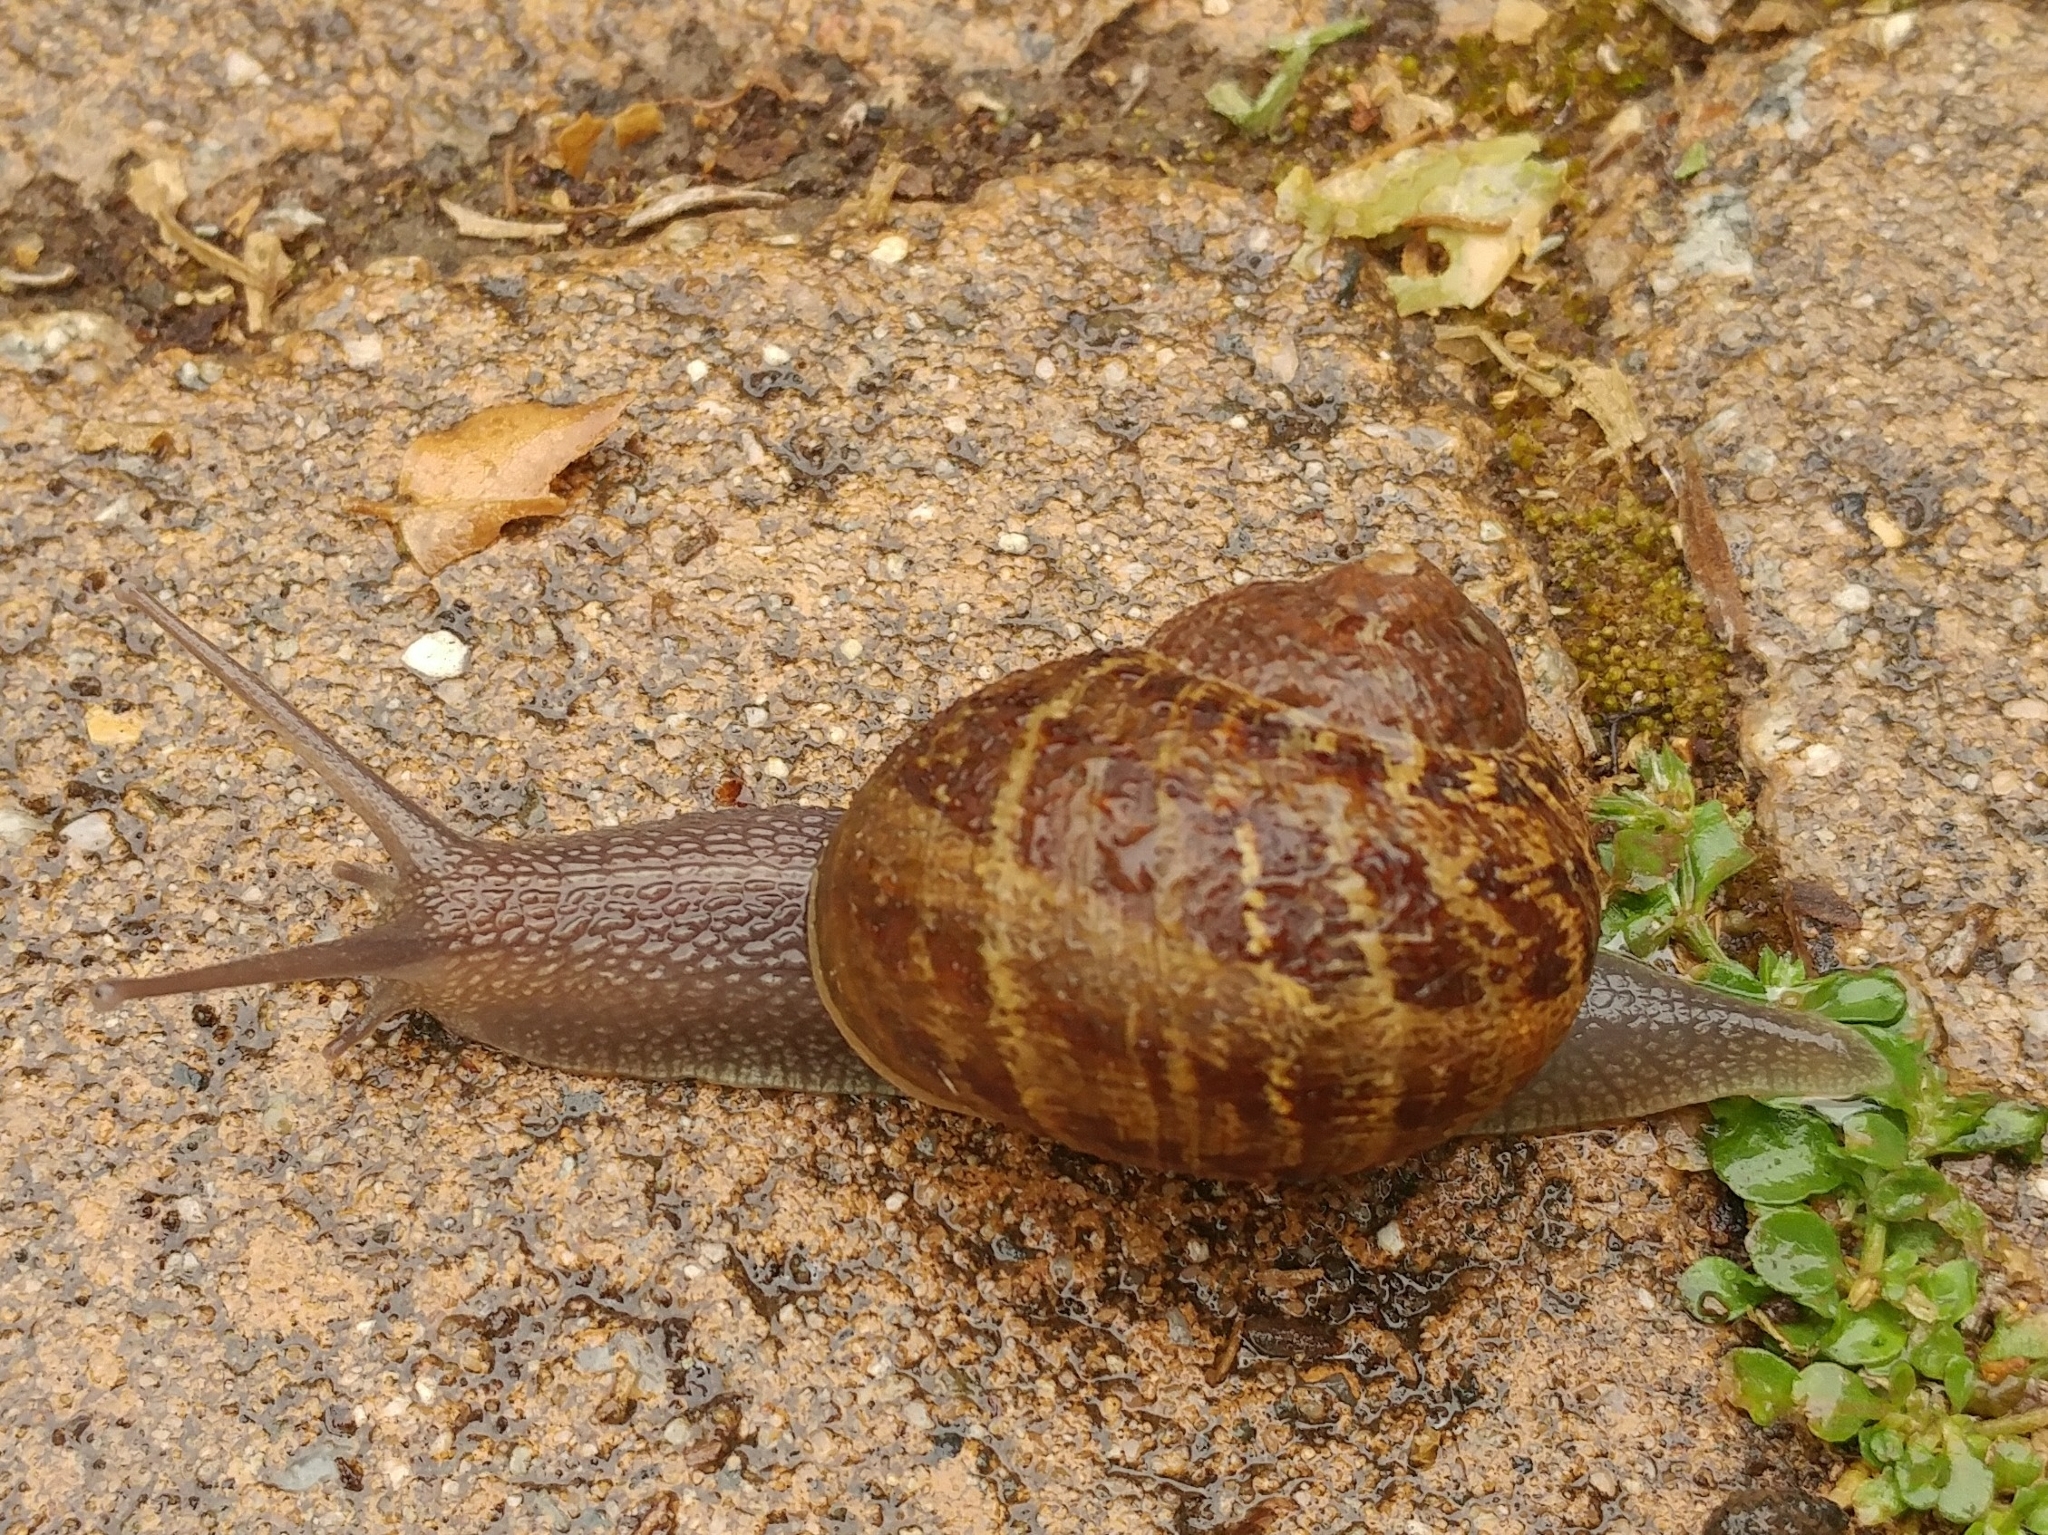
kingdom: Animalia
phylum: Mollusca
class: Gastropoda
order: Stylommatophora
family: Helicidae
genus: Cornu
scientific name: Cornu aspersum
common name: Brown garden snail
